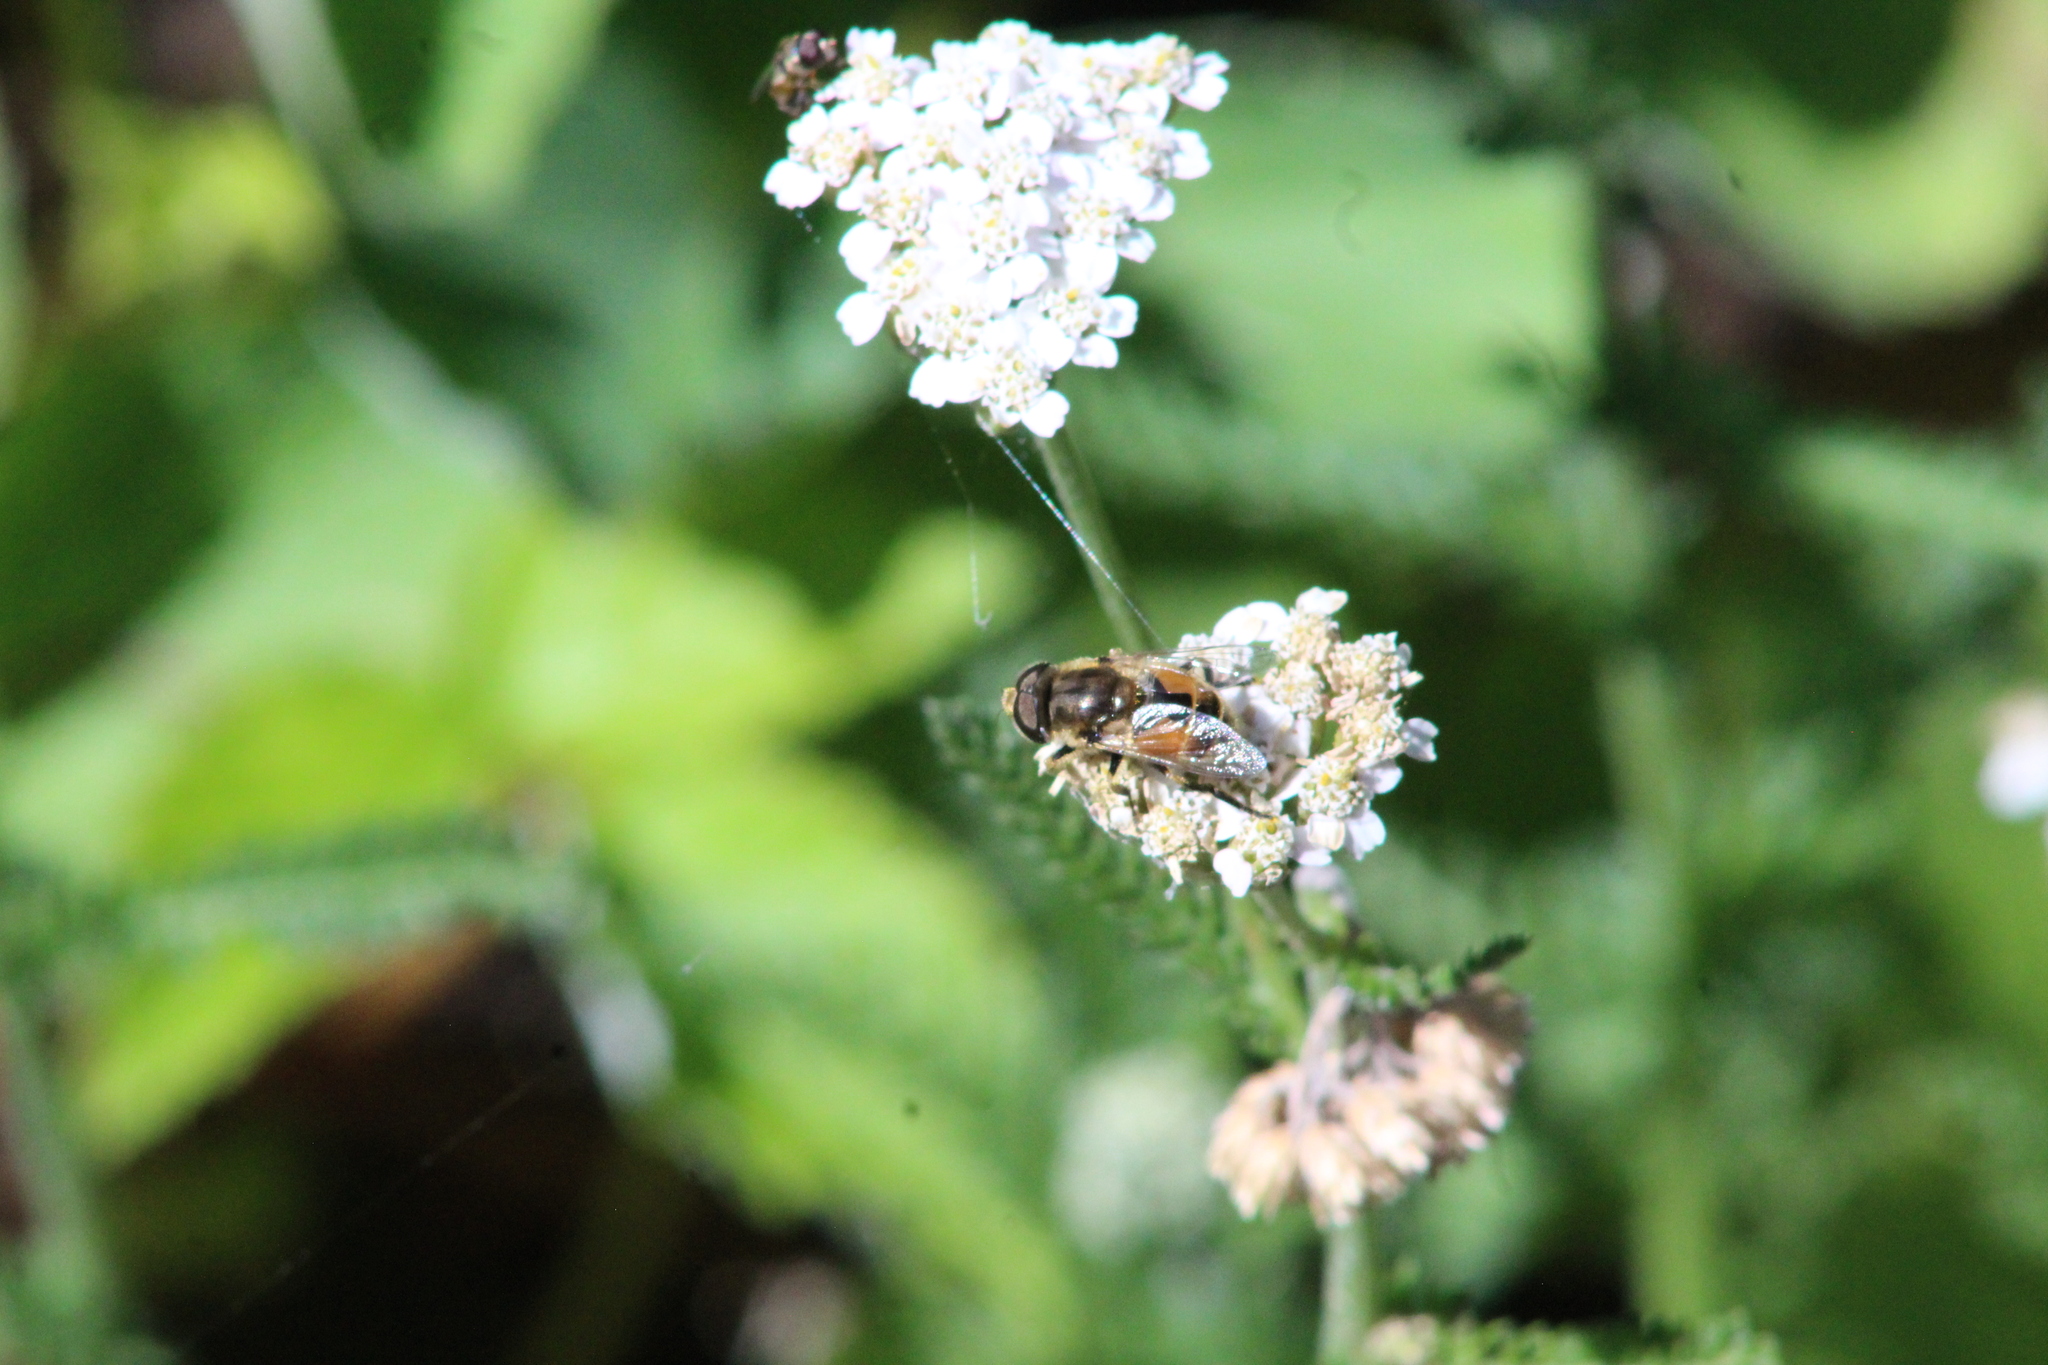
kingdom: Animalia
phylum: Arthropoda
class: Insecta
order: Diptera
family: Syrphidae
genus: Eristalis
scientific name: Eristalis arbustorum
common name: Hover fly
